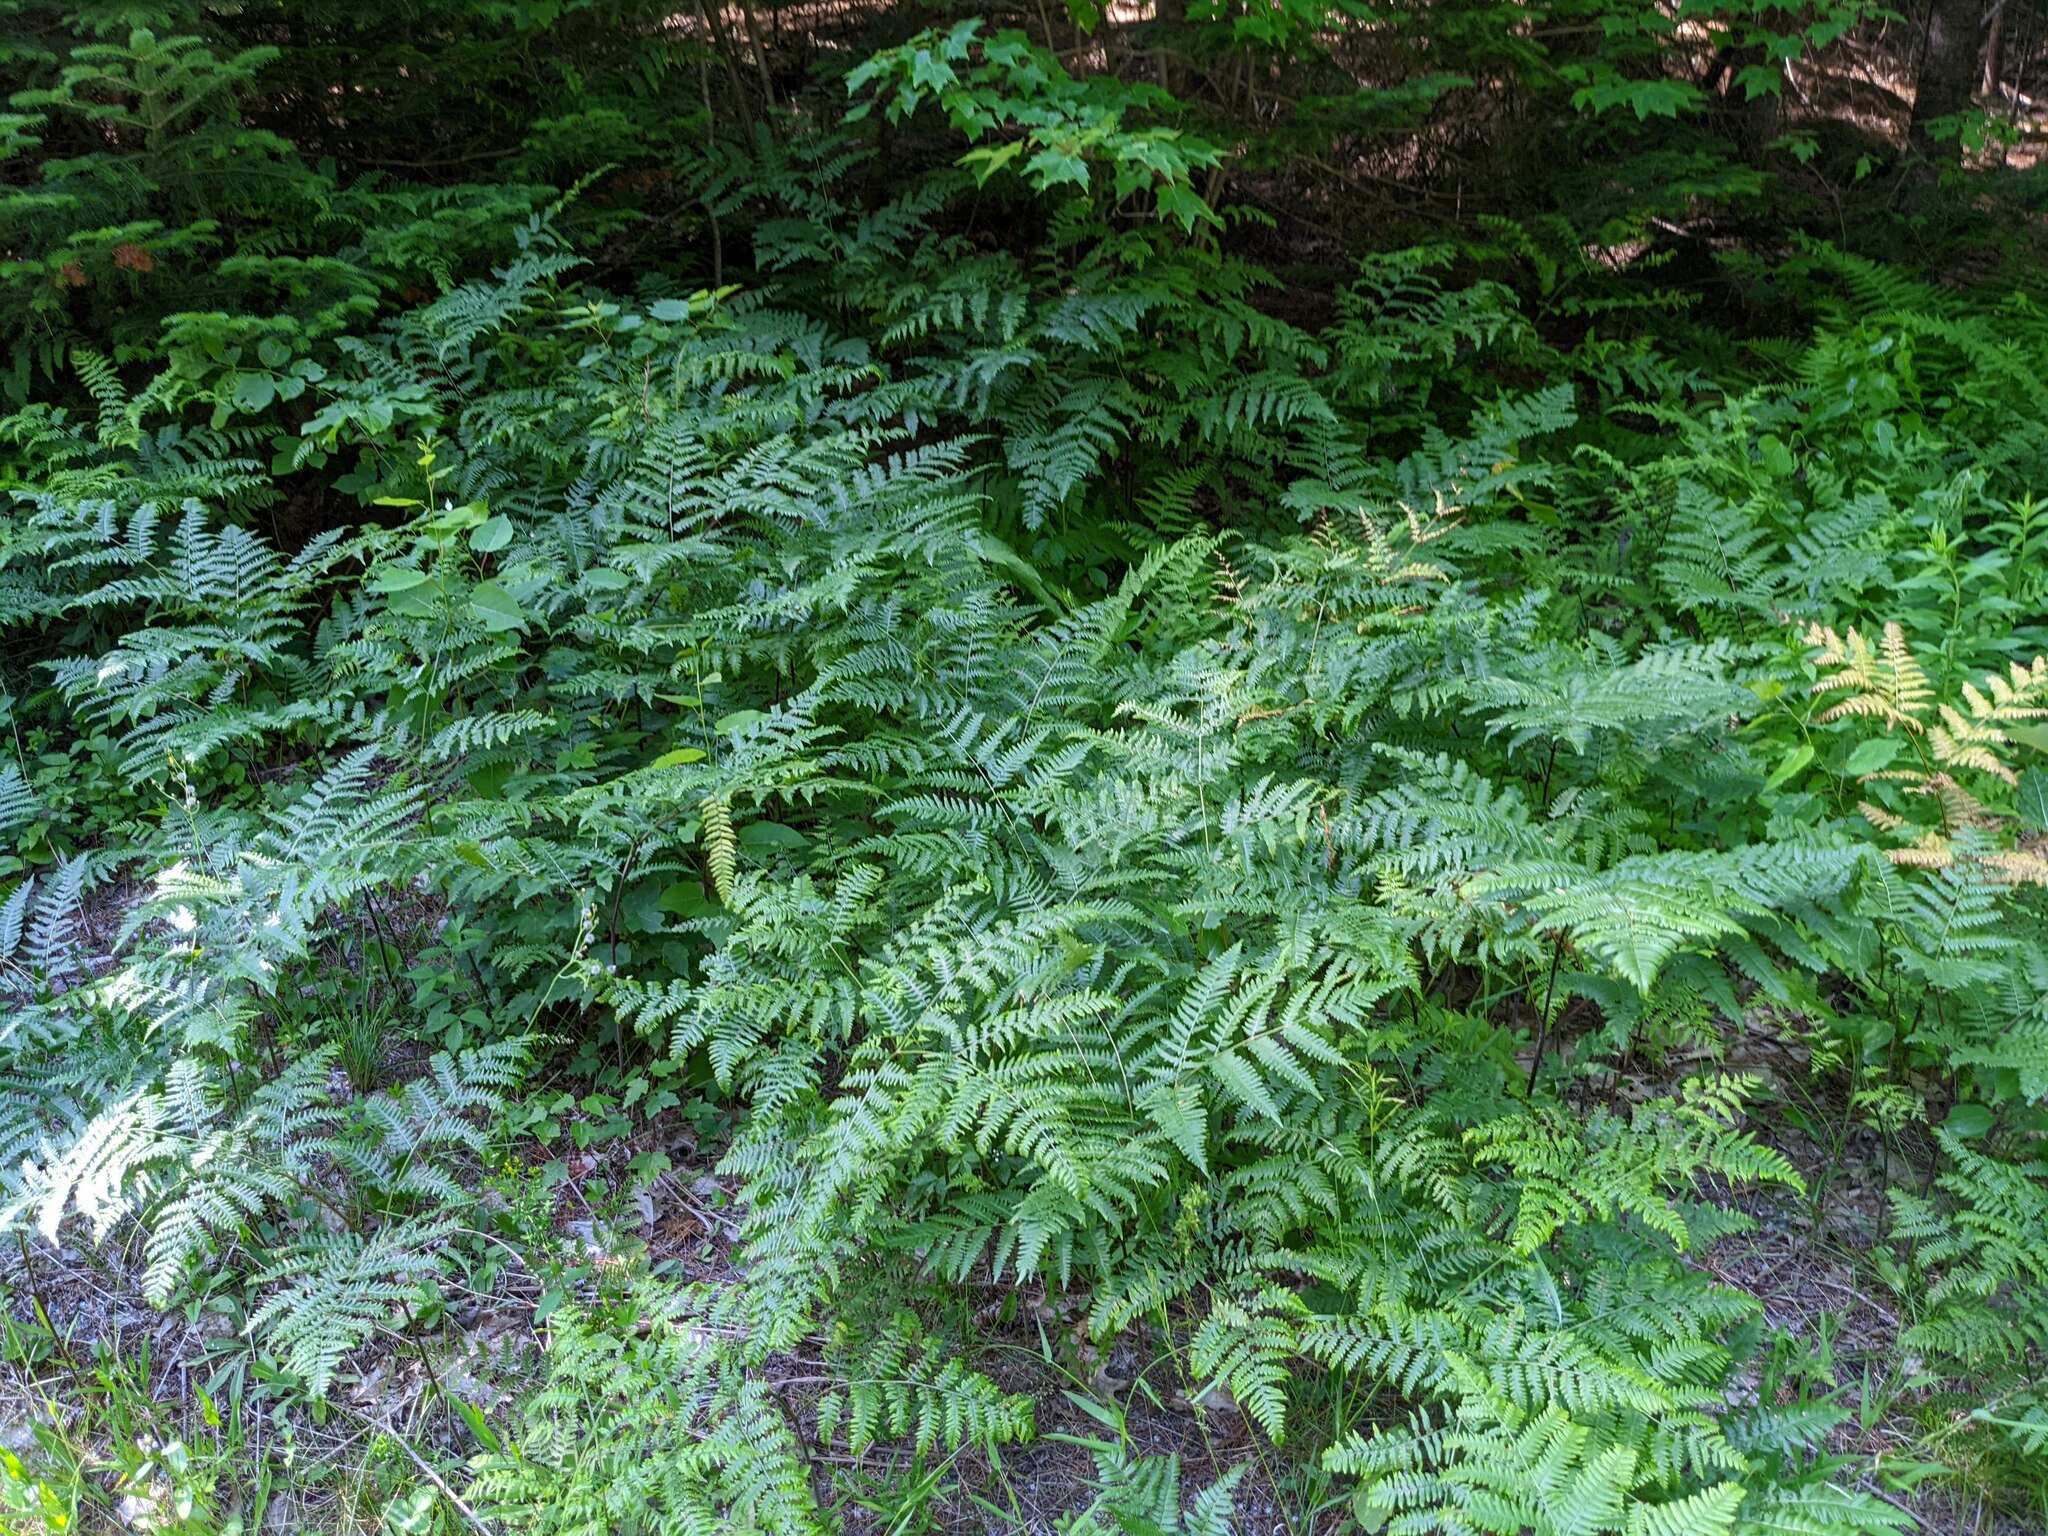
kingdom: Plantae
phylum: Tracheophyta
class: Polypodiopsida
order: Polypodiales
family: Dennstaedtiaceae
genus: Pteridium
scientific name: Pteridium aquilinum
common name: Bracken
